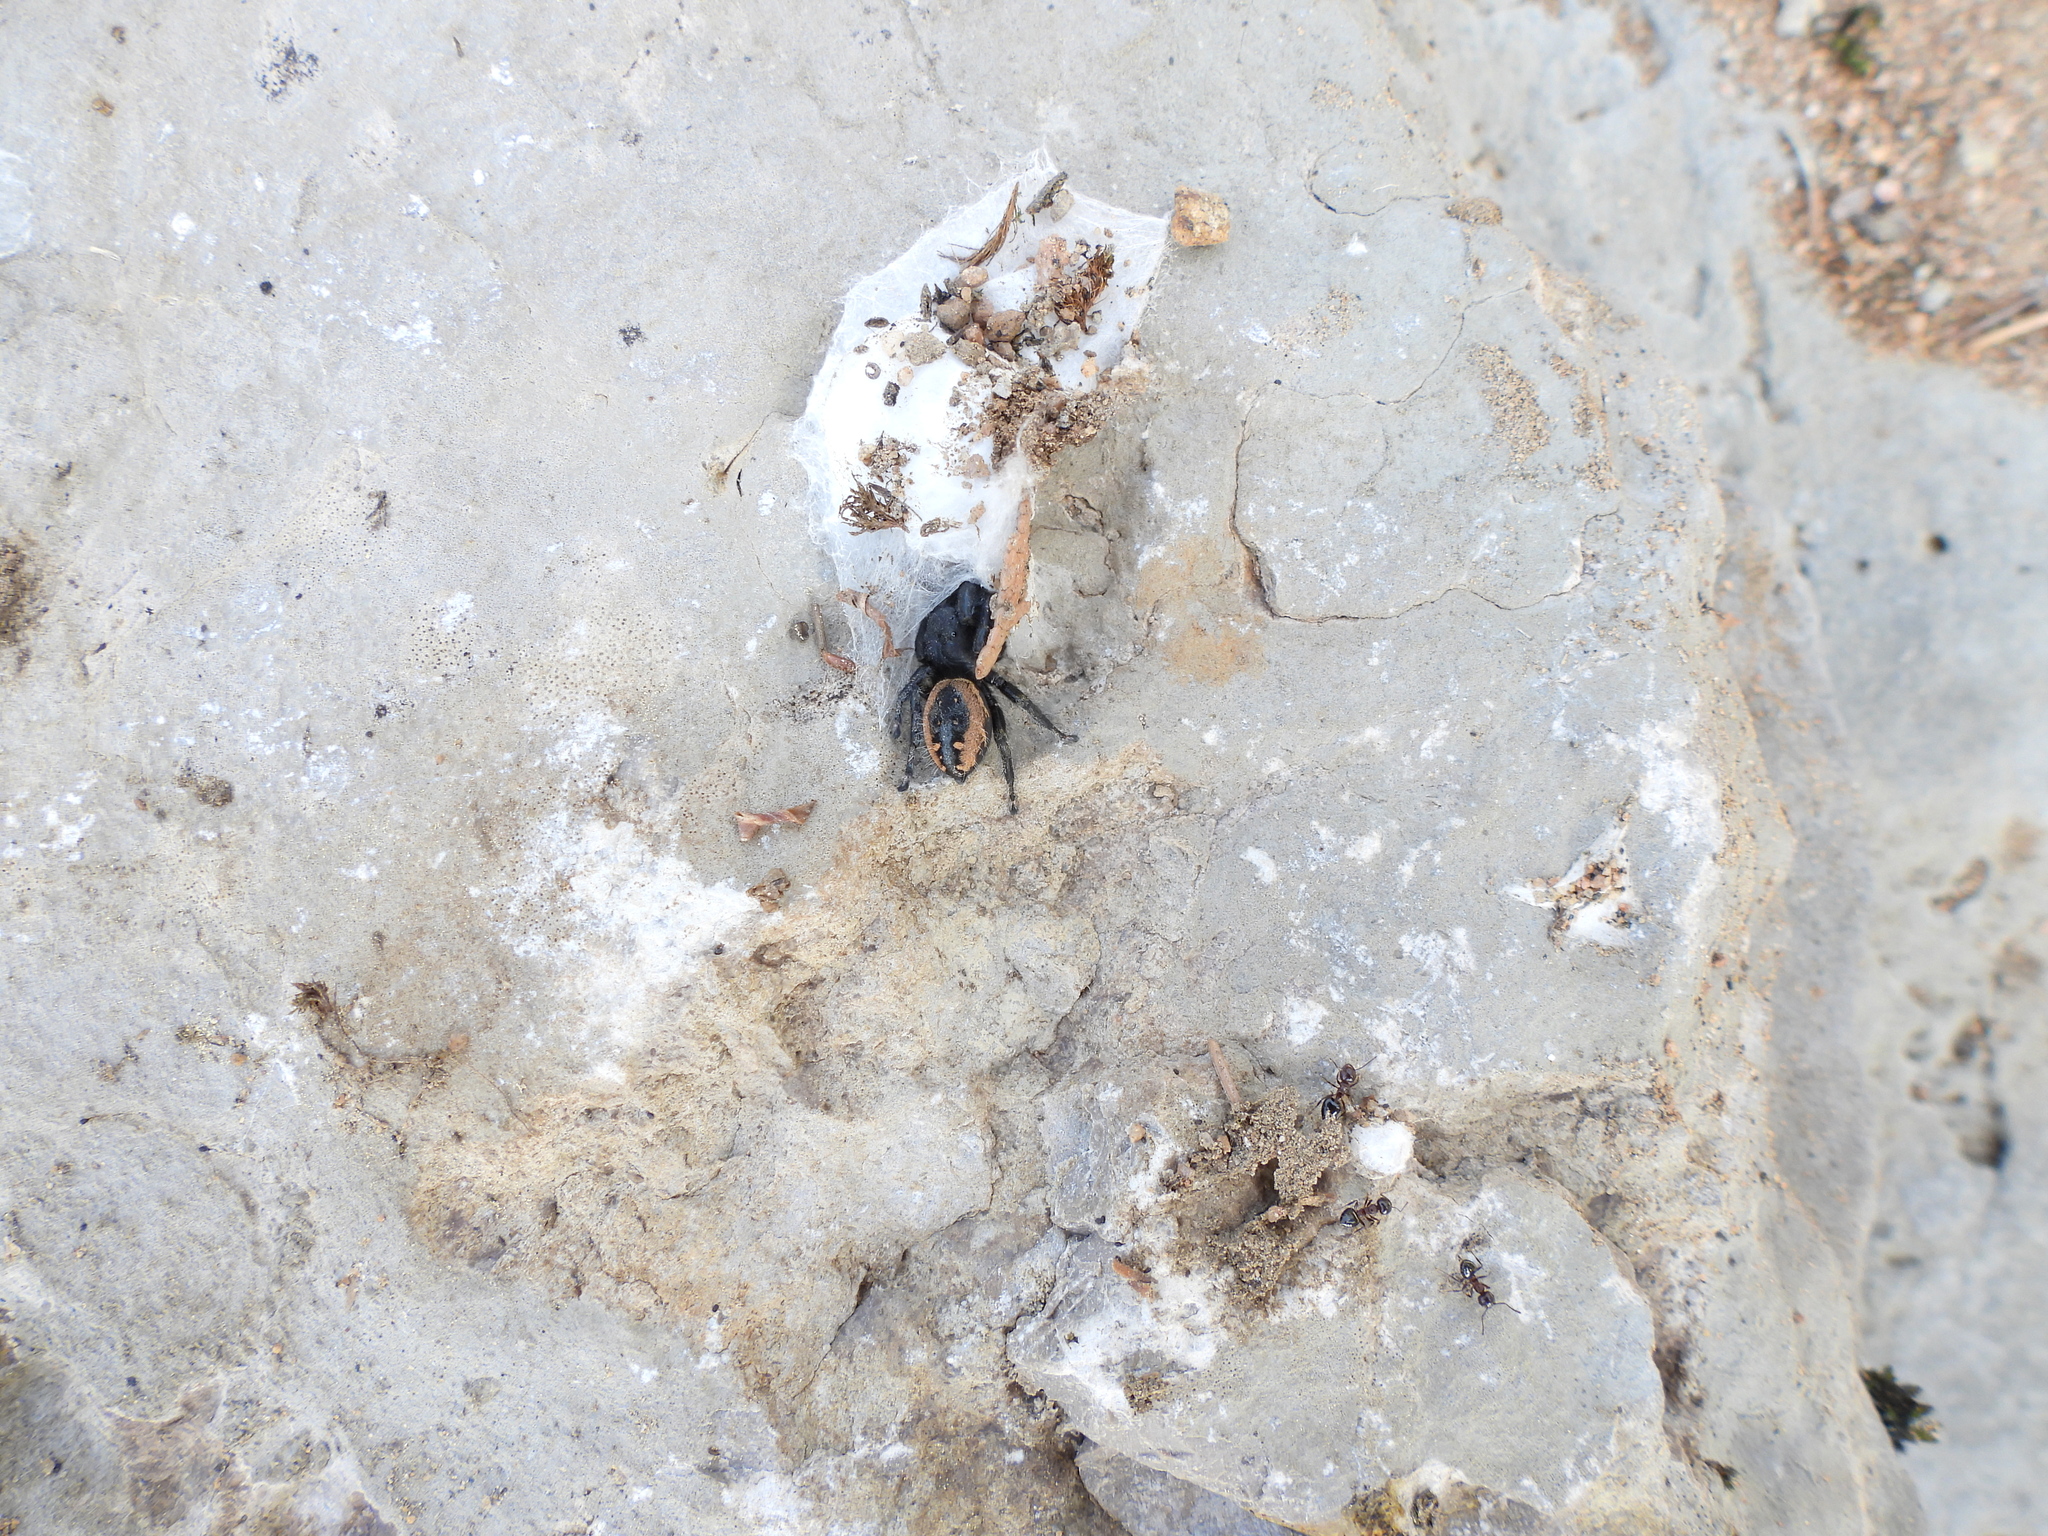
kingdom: Animalia
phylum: Arthropoda
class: Arachnida
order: Araneae
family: Salticidae
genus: Phidippus
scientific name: Phidippus purpuratus
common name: Marbled purple jumping spider
